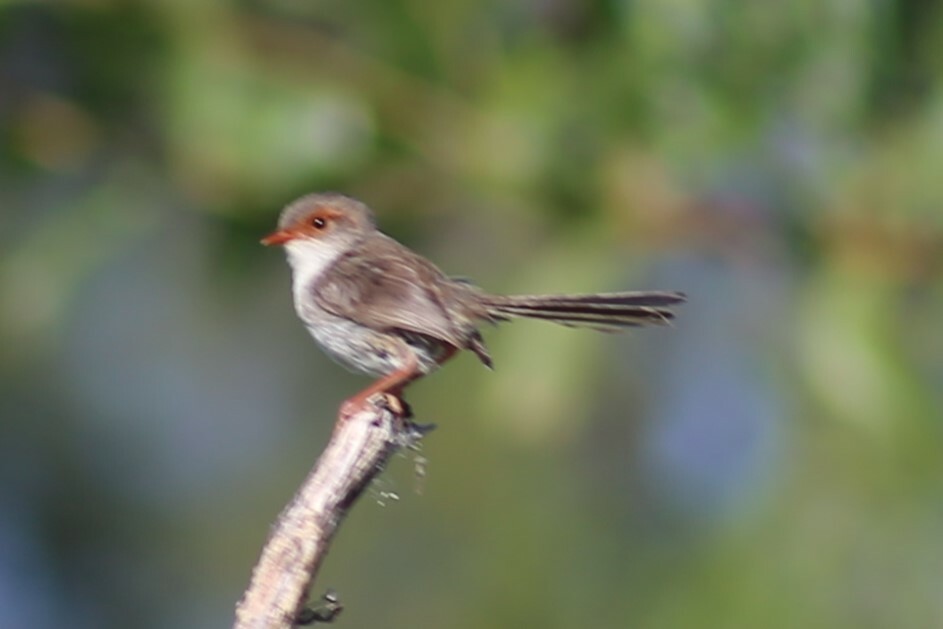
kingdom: Animalia
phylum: Chordata
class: Aves
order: Passeriformes
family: Maluridae
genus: Malurus
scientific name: Malurus cyaneus
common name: Superb fairywren
